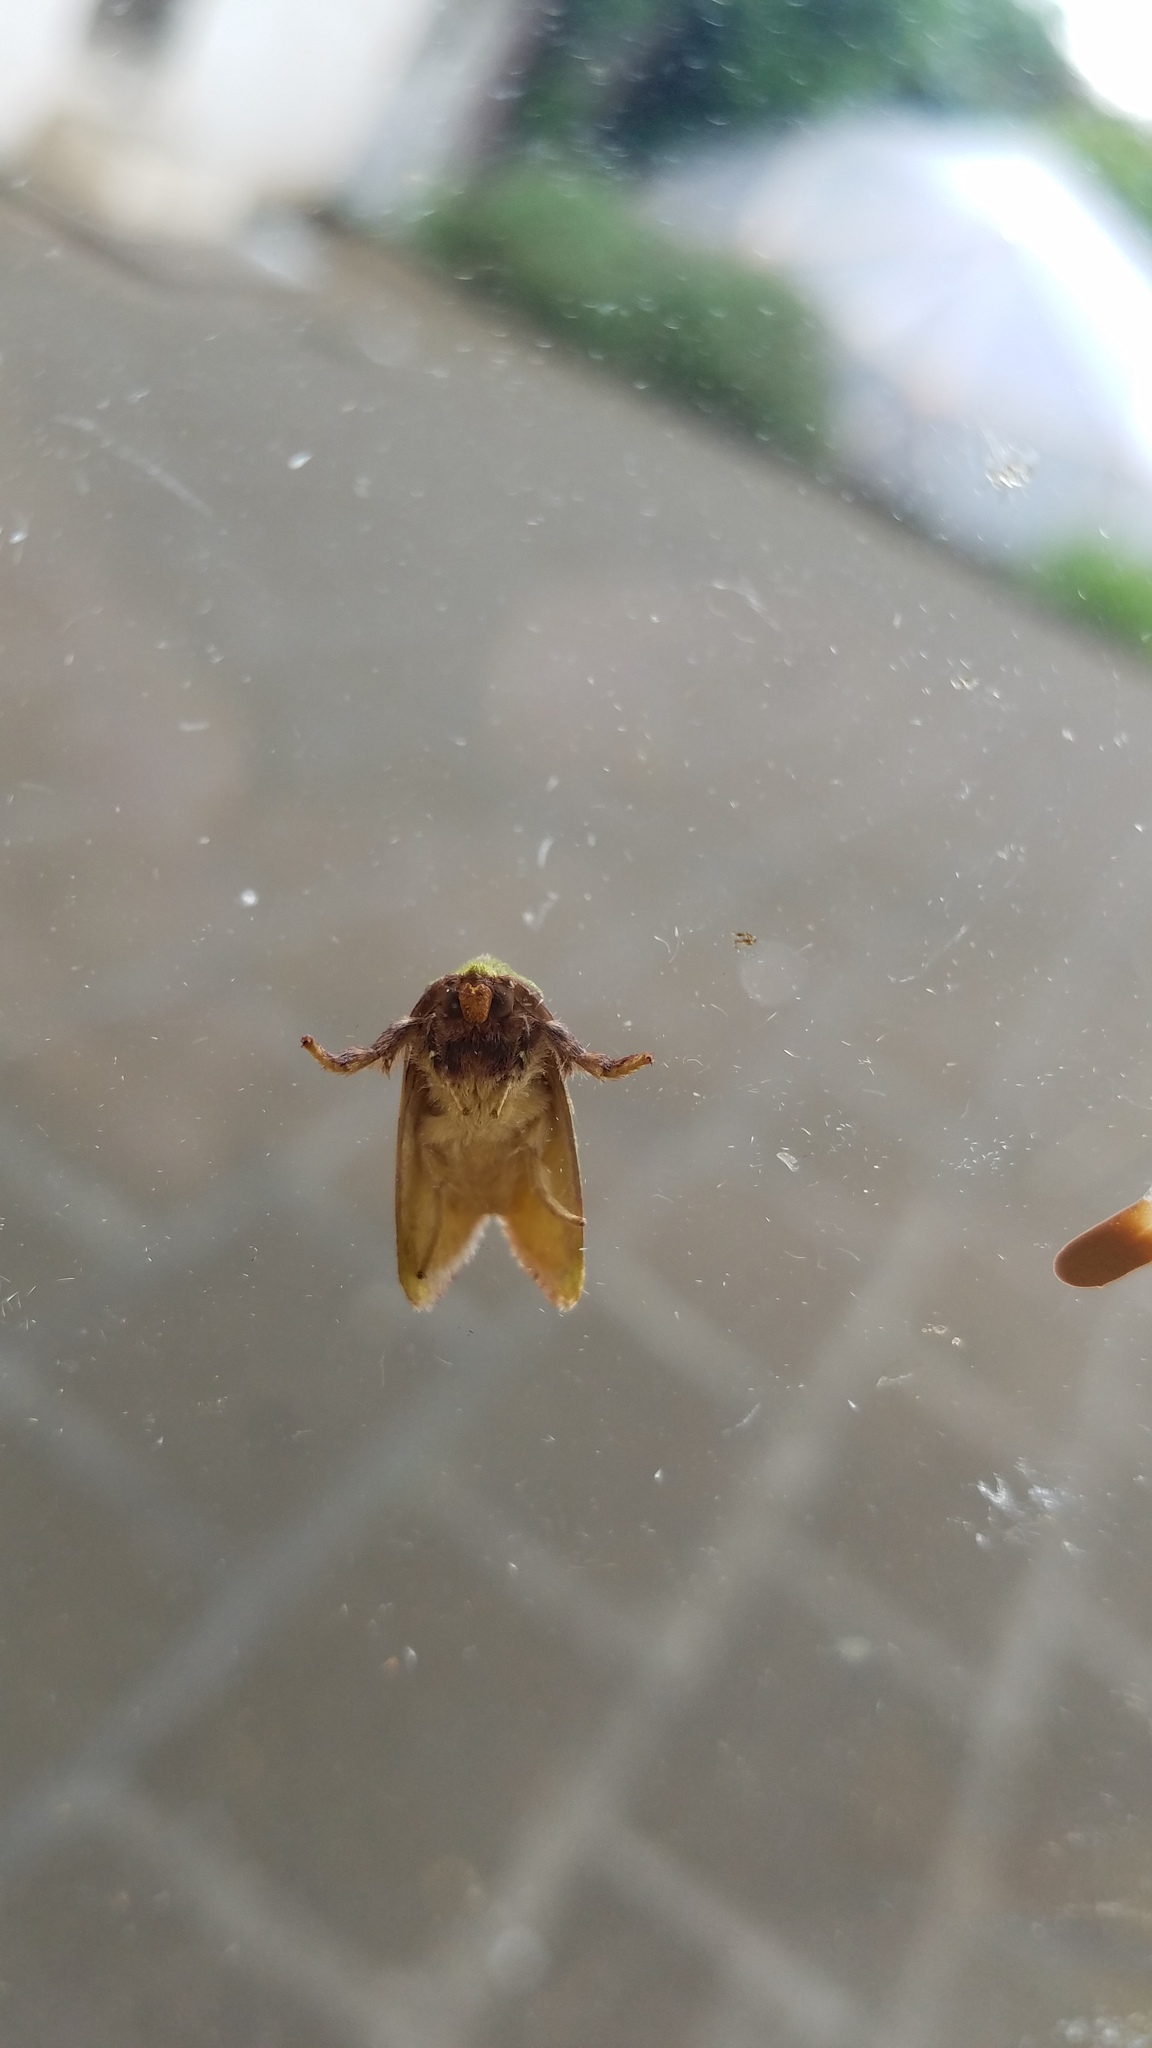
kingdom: Animalia
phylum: Arthropoda
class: Insecta
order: Lepidoptera
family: Limacodidae
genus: Parasa
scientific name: Parasa wellesca
